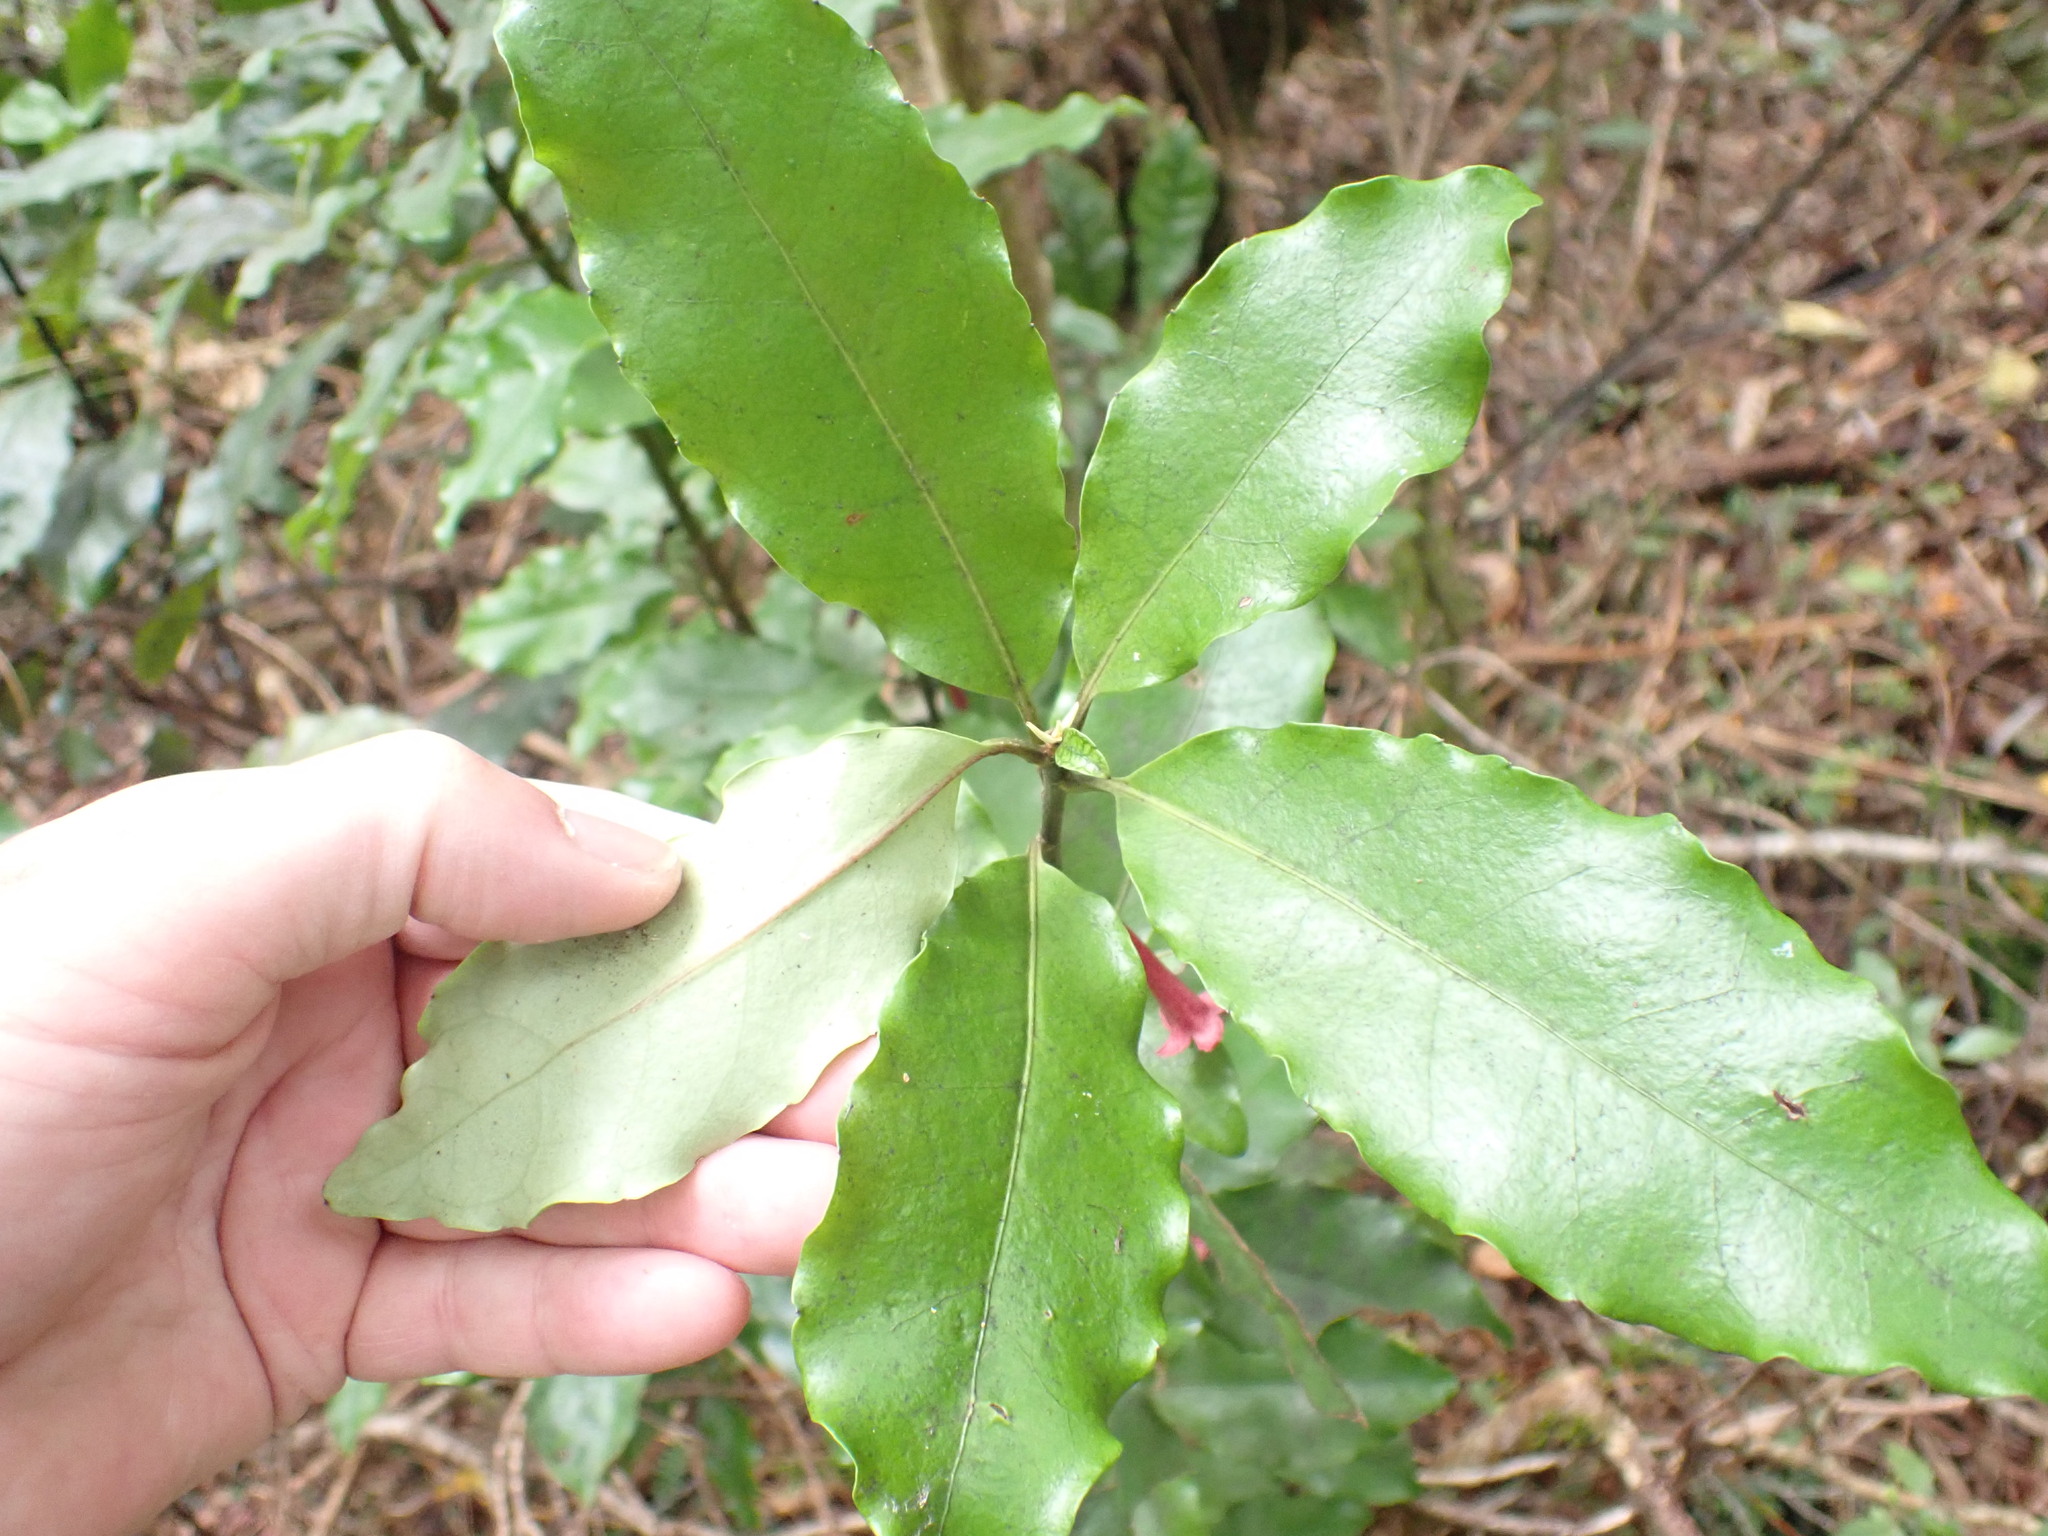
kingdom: Plantae
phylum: Tracheophyta
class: Magnoliopsida
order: Asterales
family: Alseuosmiaceae
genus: Alseuosmia
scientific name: Alseuosmia macrophylla
